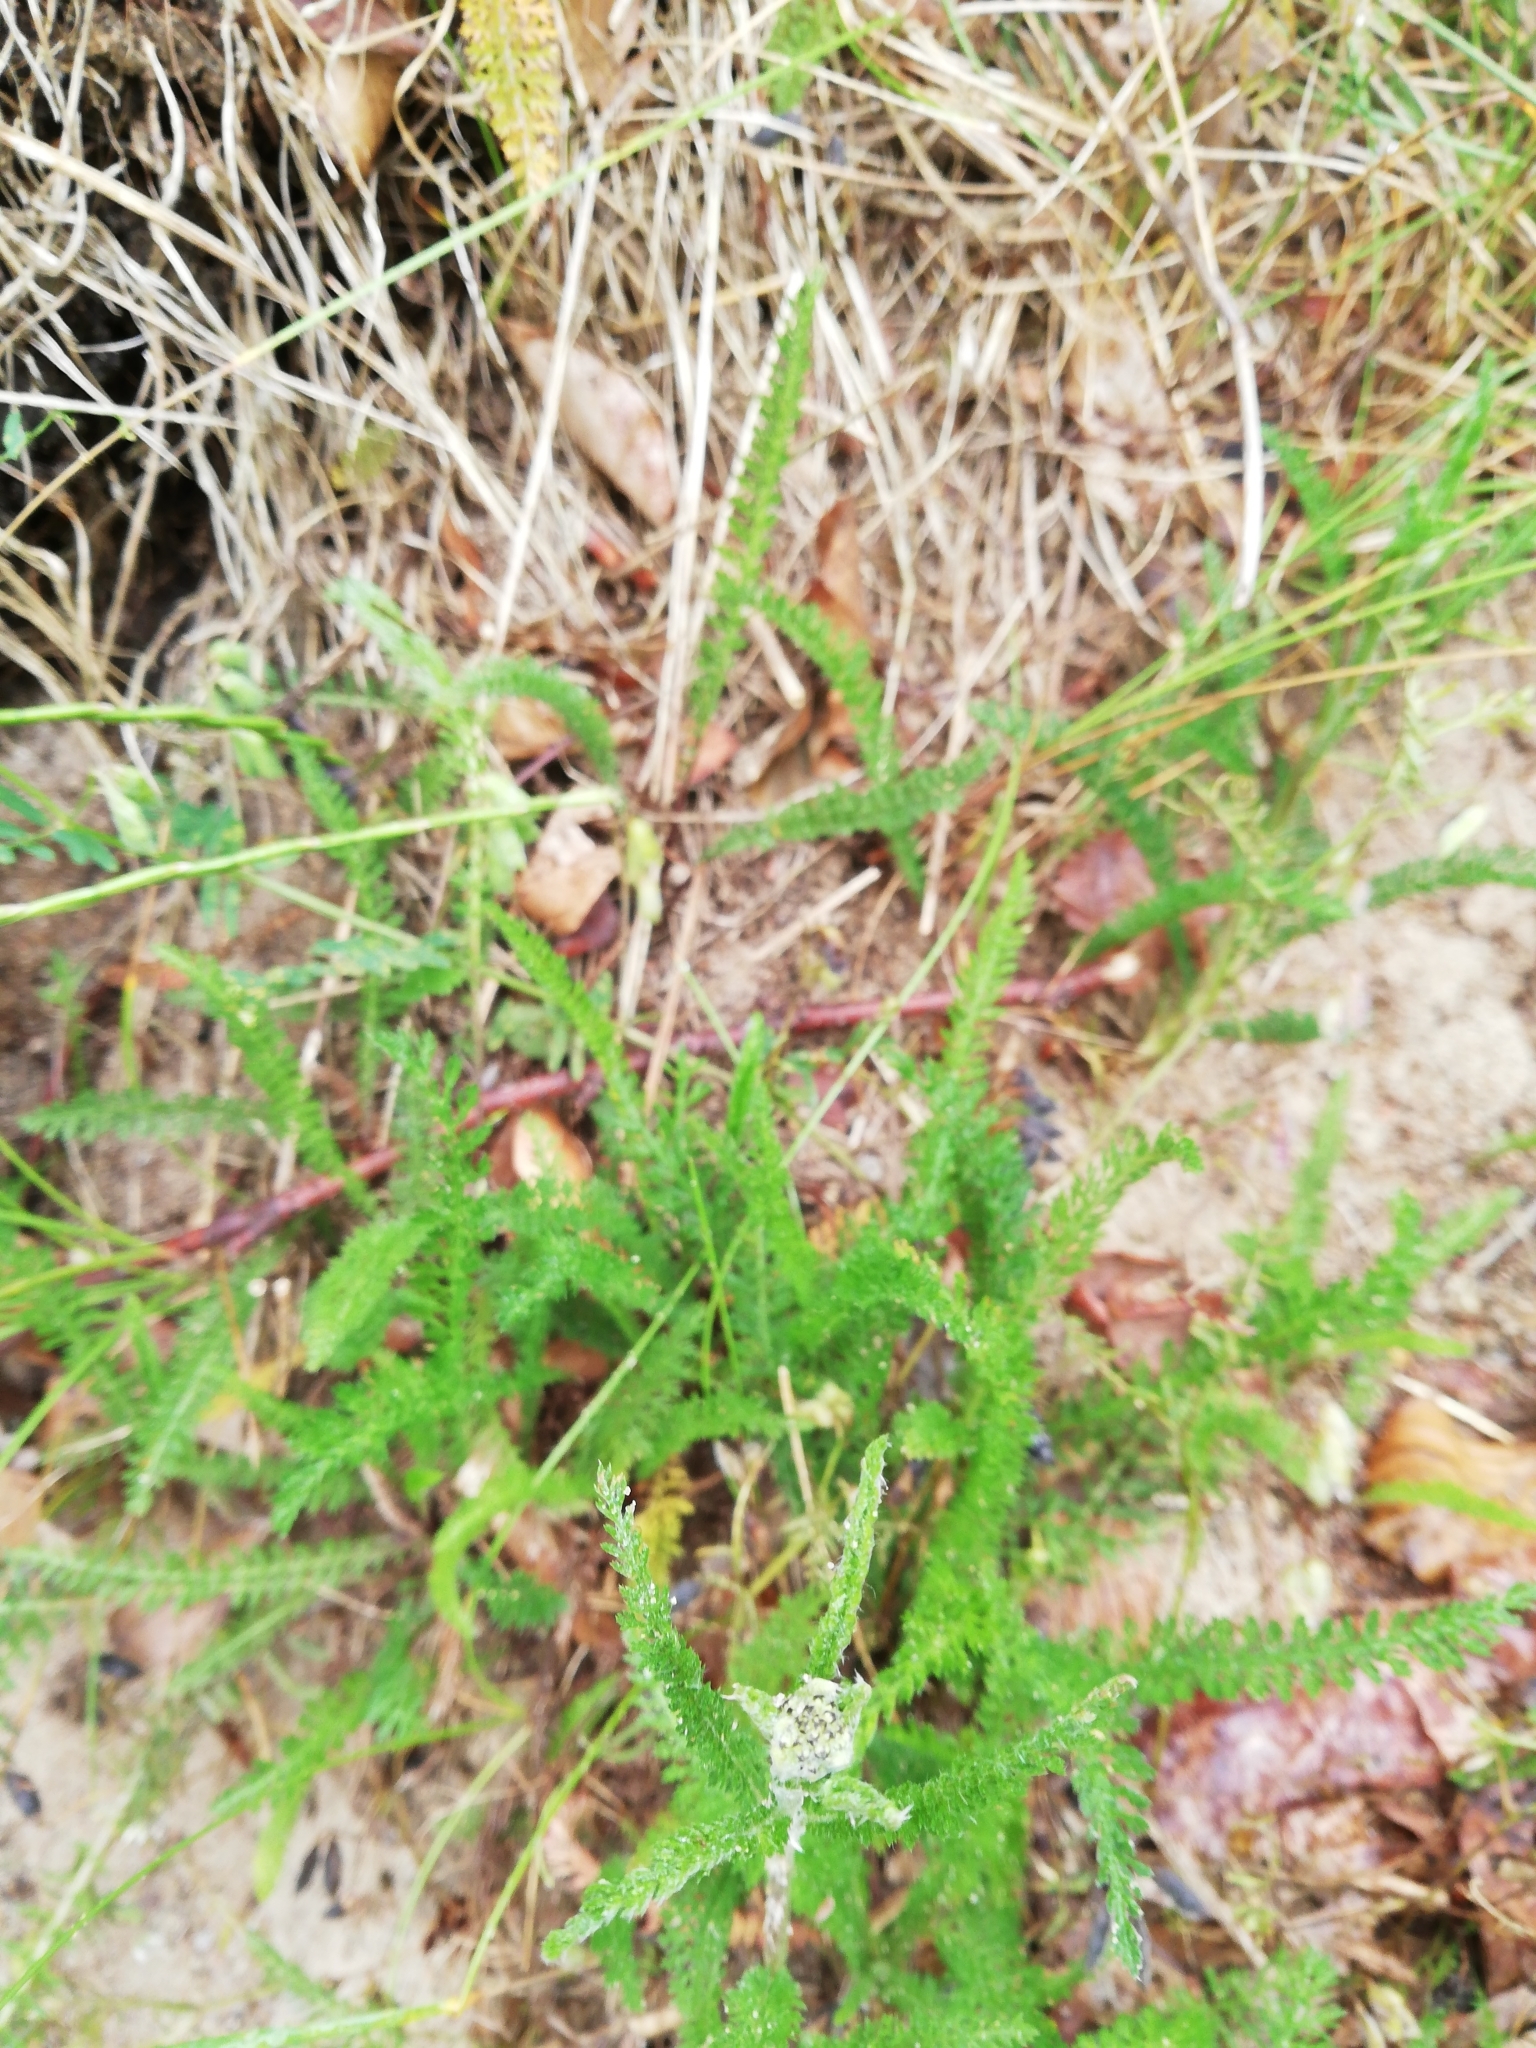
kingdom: Plantae
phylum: Tracheophyta
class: Magnoliopsida
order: Asterales
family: Asteraceae
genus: Achillea
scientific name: Achillea millefolium
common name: Yarrow
